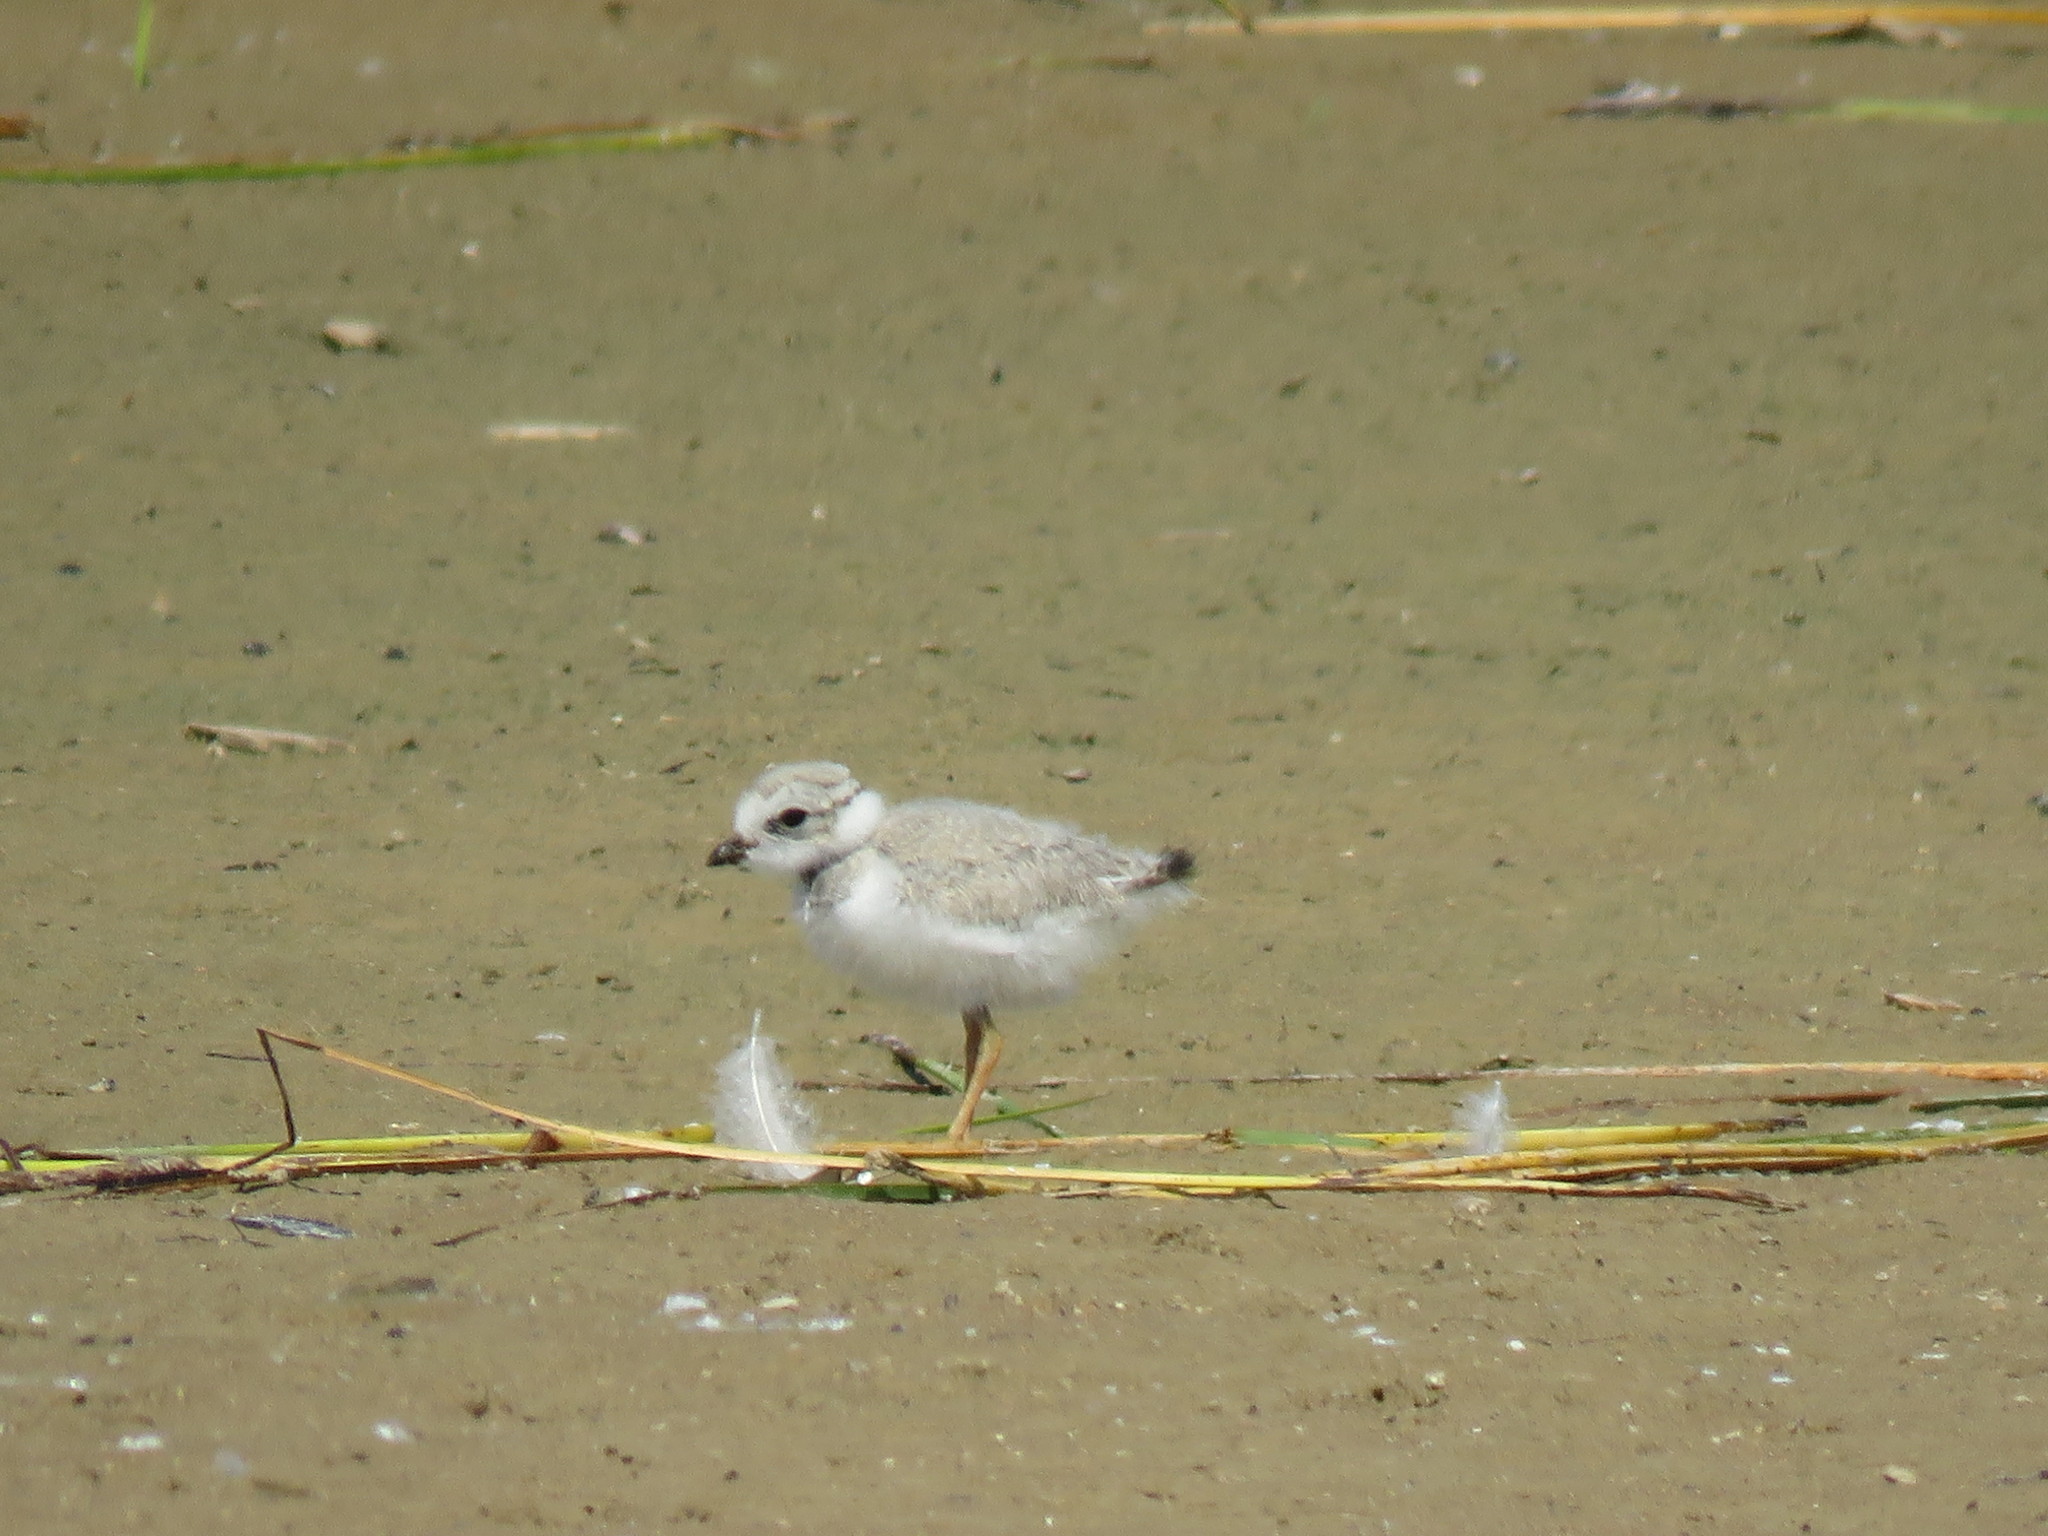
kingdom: Animalia
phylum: Chordata
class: Aves
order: Charadriiformes
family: Charadriidae
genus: Charadrius
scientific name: Charadrius melodus
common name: Piping plover
